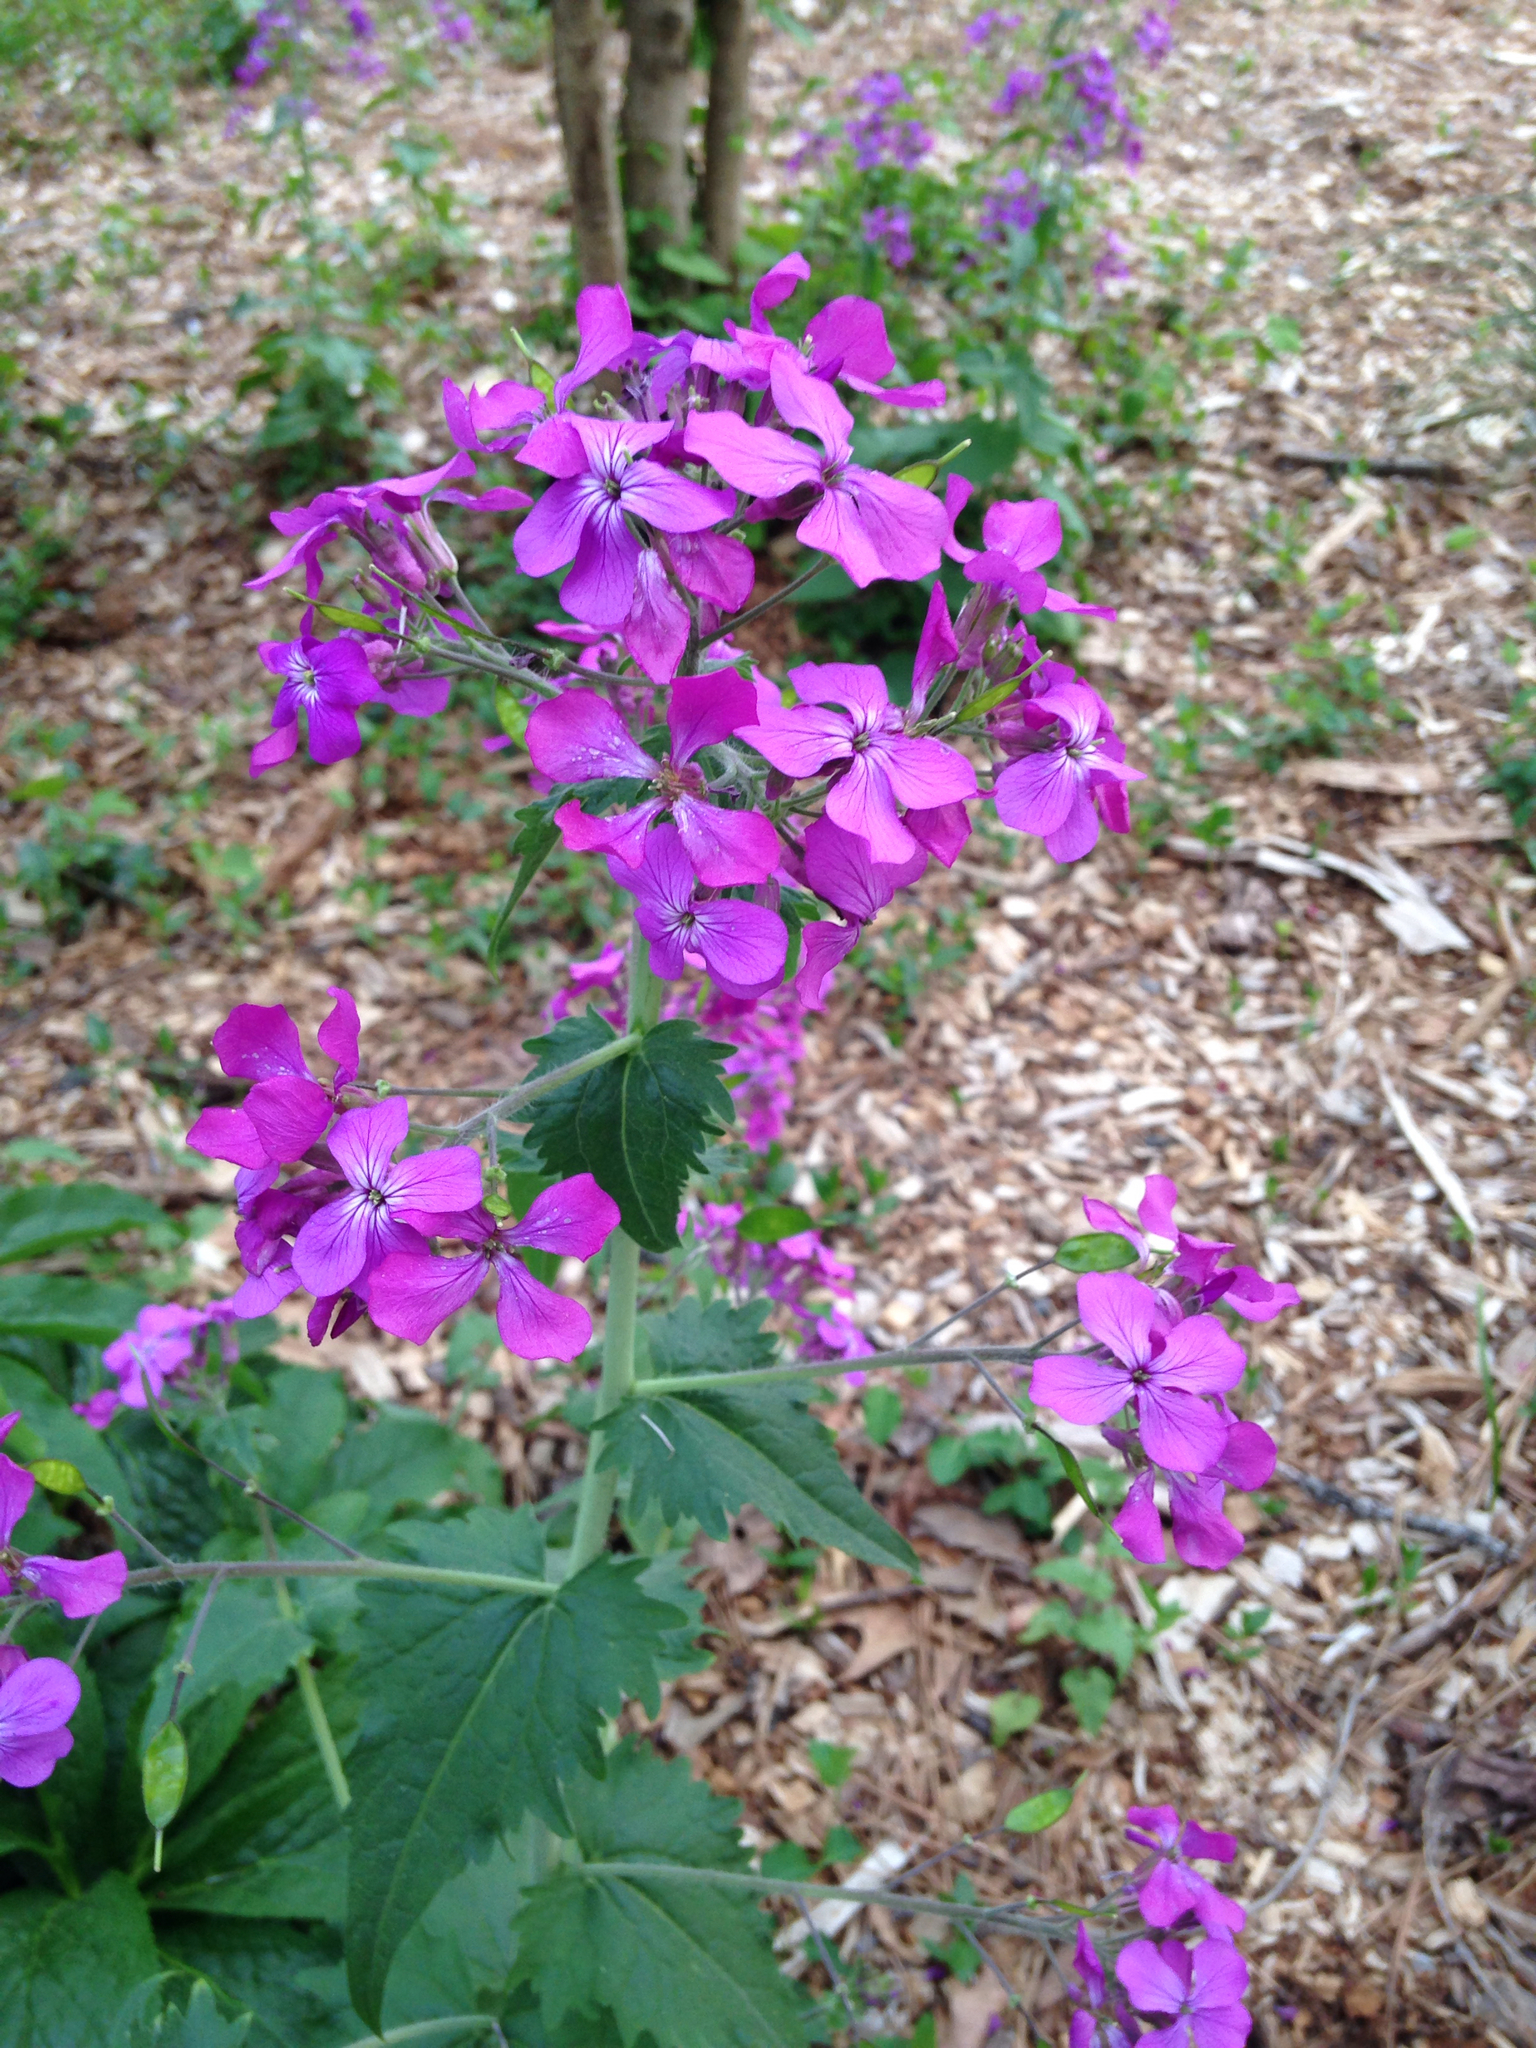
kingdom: Plantae
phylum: Tracheophyta
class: Magnoliopsida
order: Brassicales
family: Brassicaceae
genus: Lunaria
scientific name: Lunaria annua
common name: Honesty
